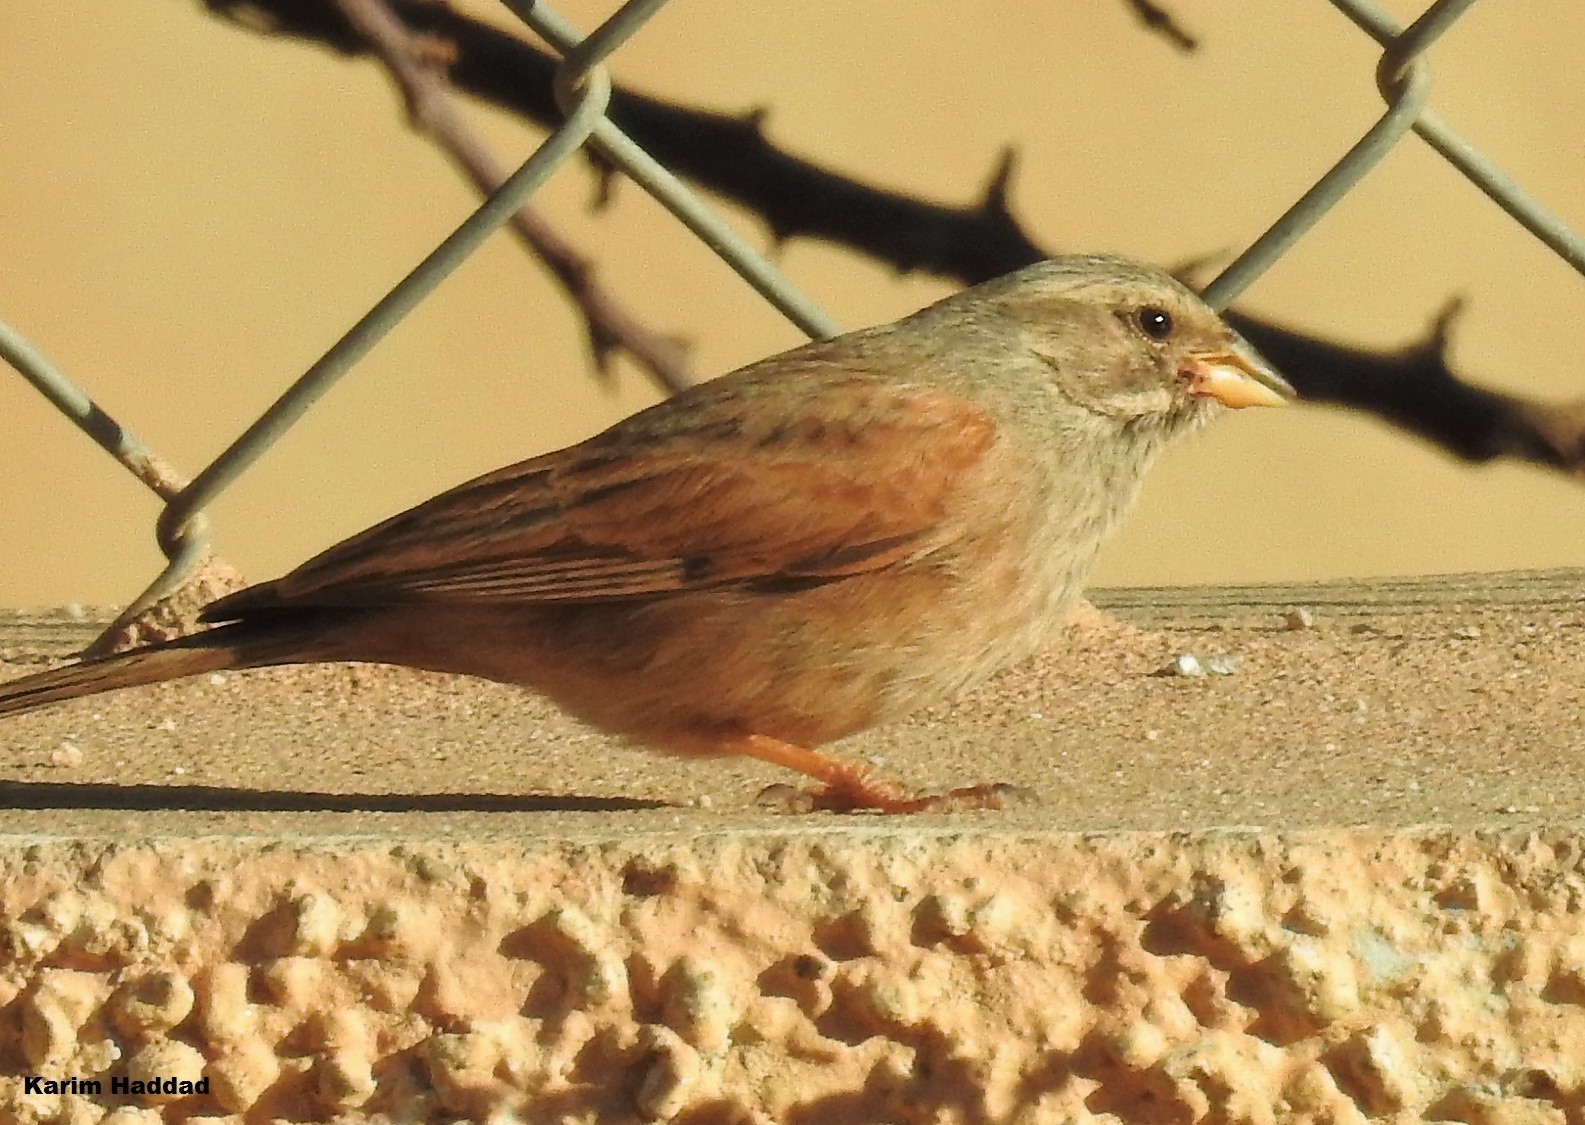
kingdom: Animalia
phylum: Chordata
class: Aves
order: Passeriformes
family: Emberizidae
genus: Emberiza
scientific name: Emberiza sahari
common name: House bunting
